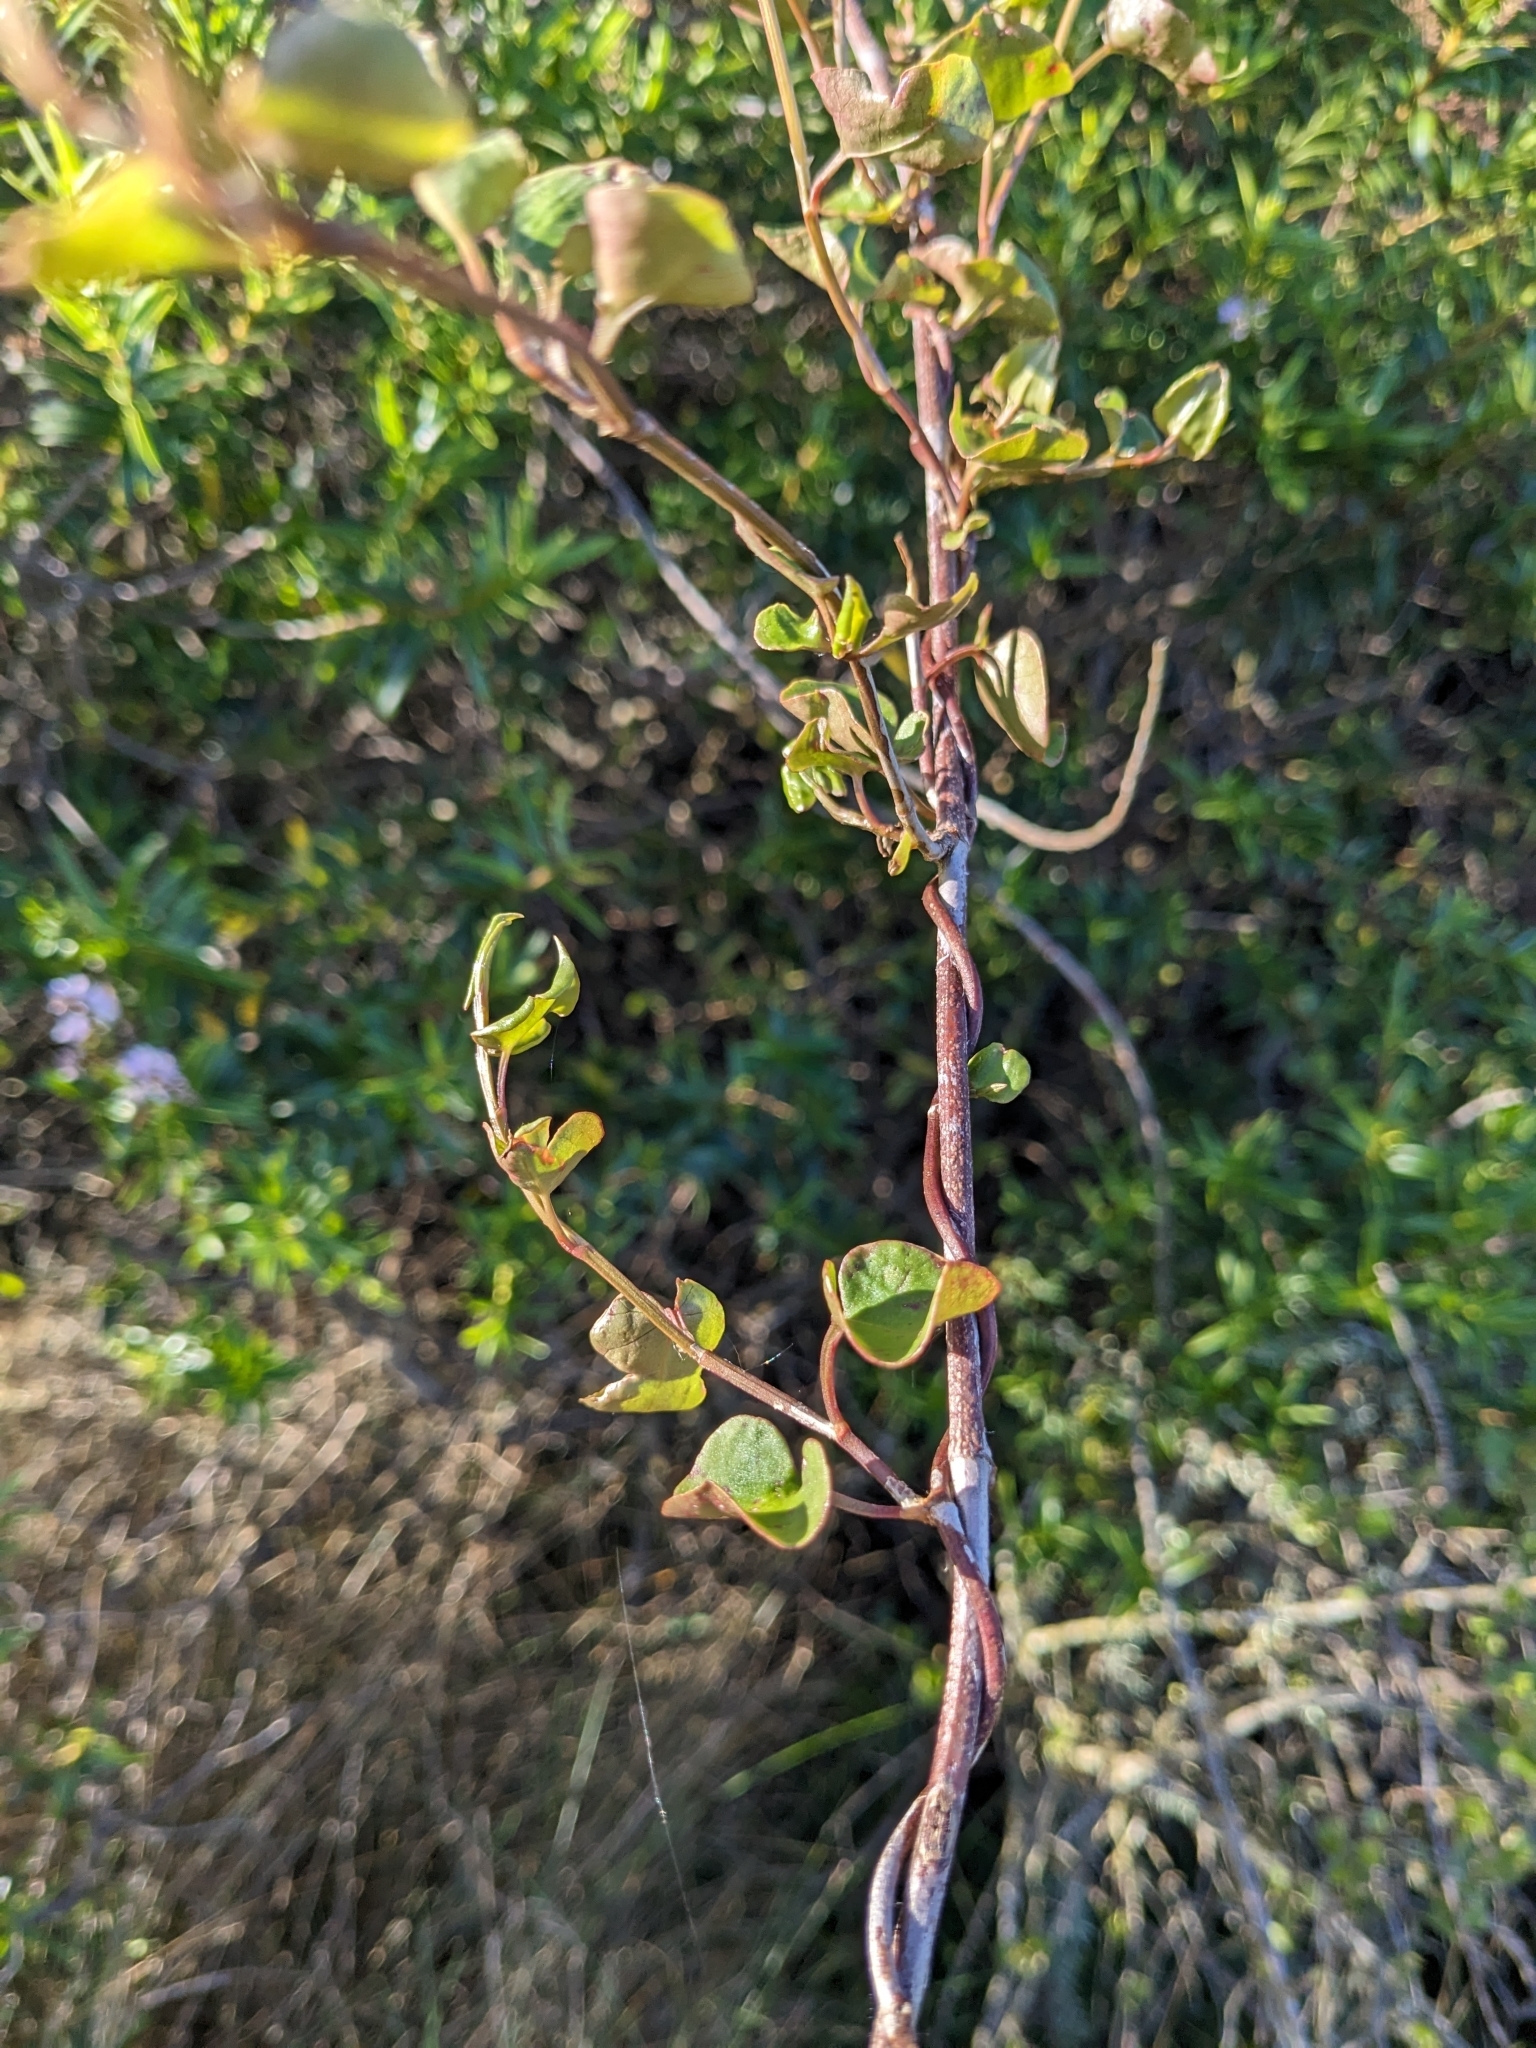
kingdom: Animalia
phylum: Arthropoda
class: Insecta
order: Lepidoptera
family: Thyrididae
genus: Morova
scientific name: Morova subfasciata
